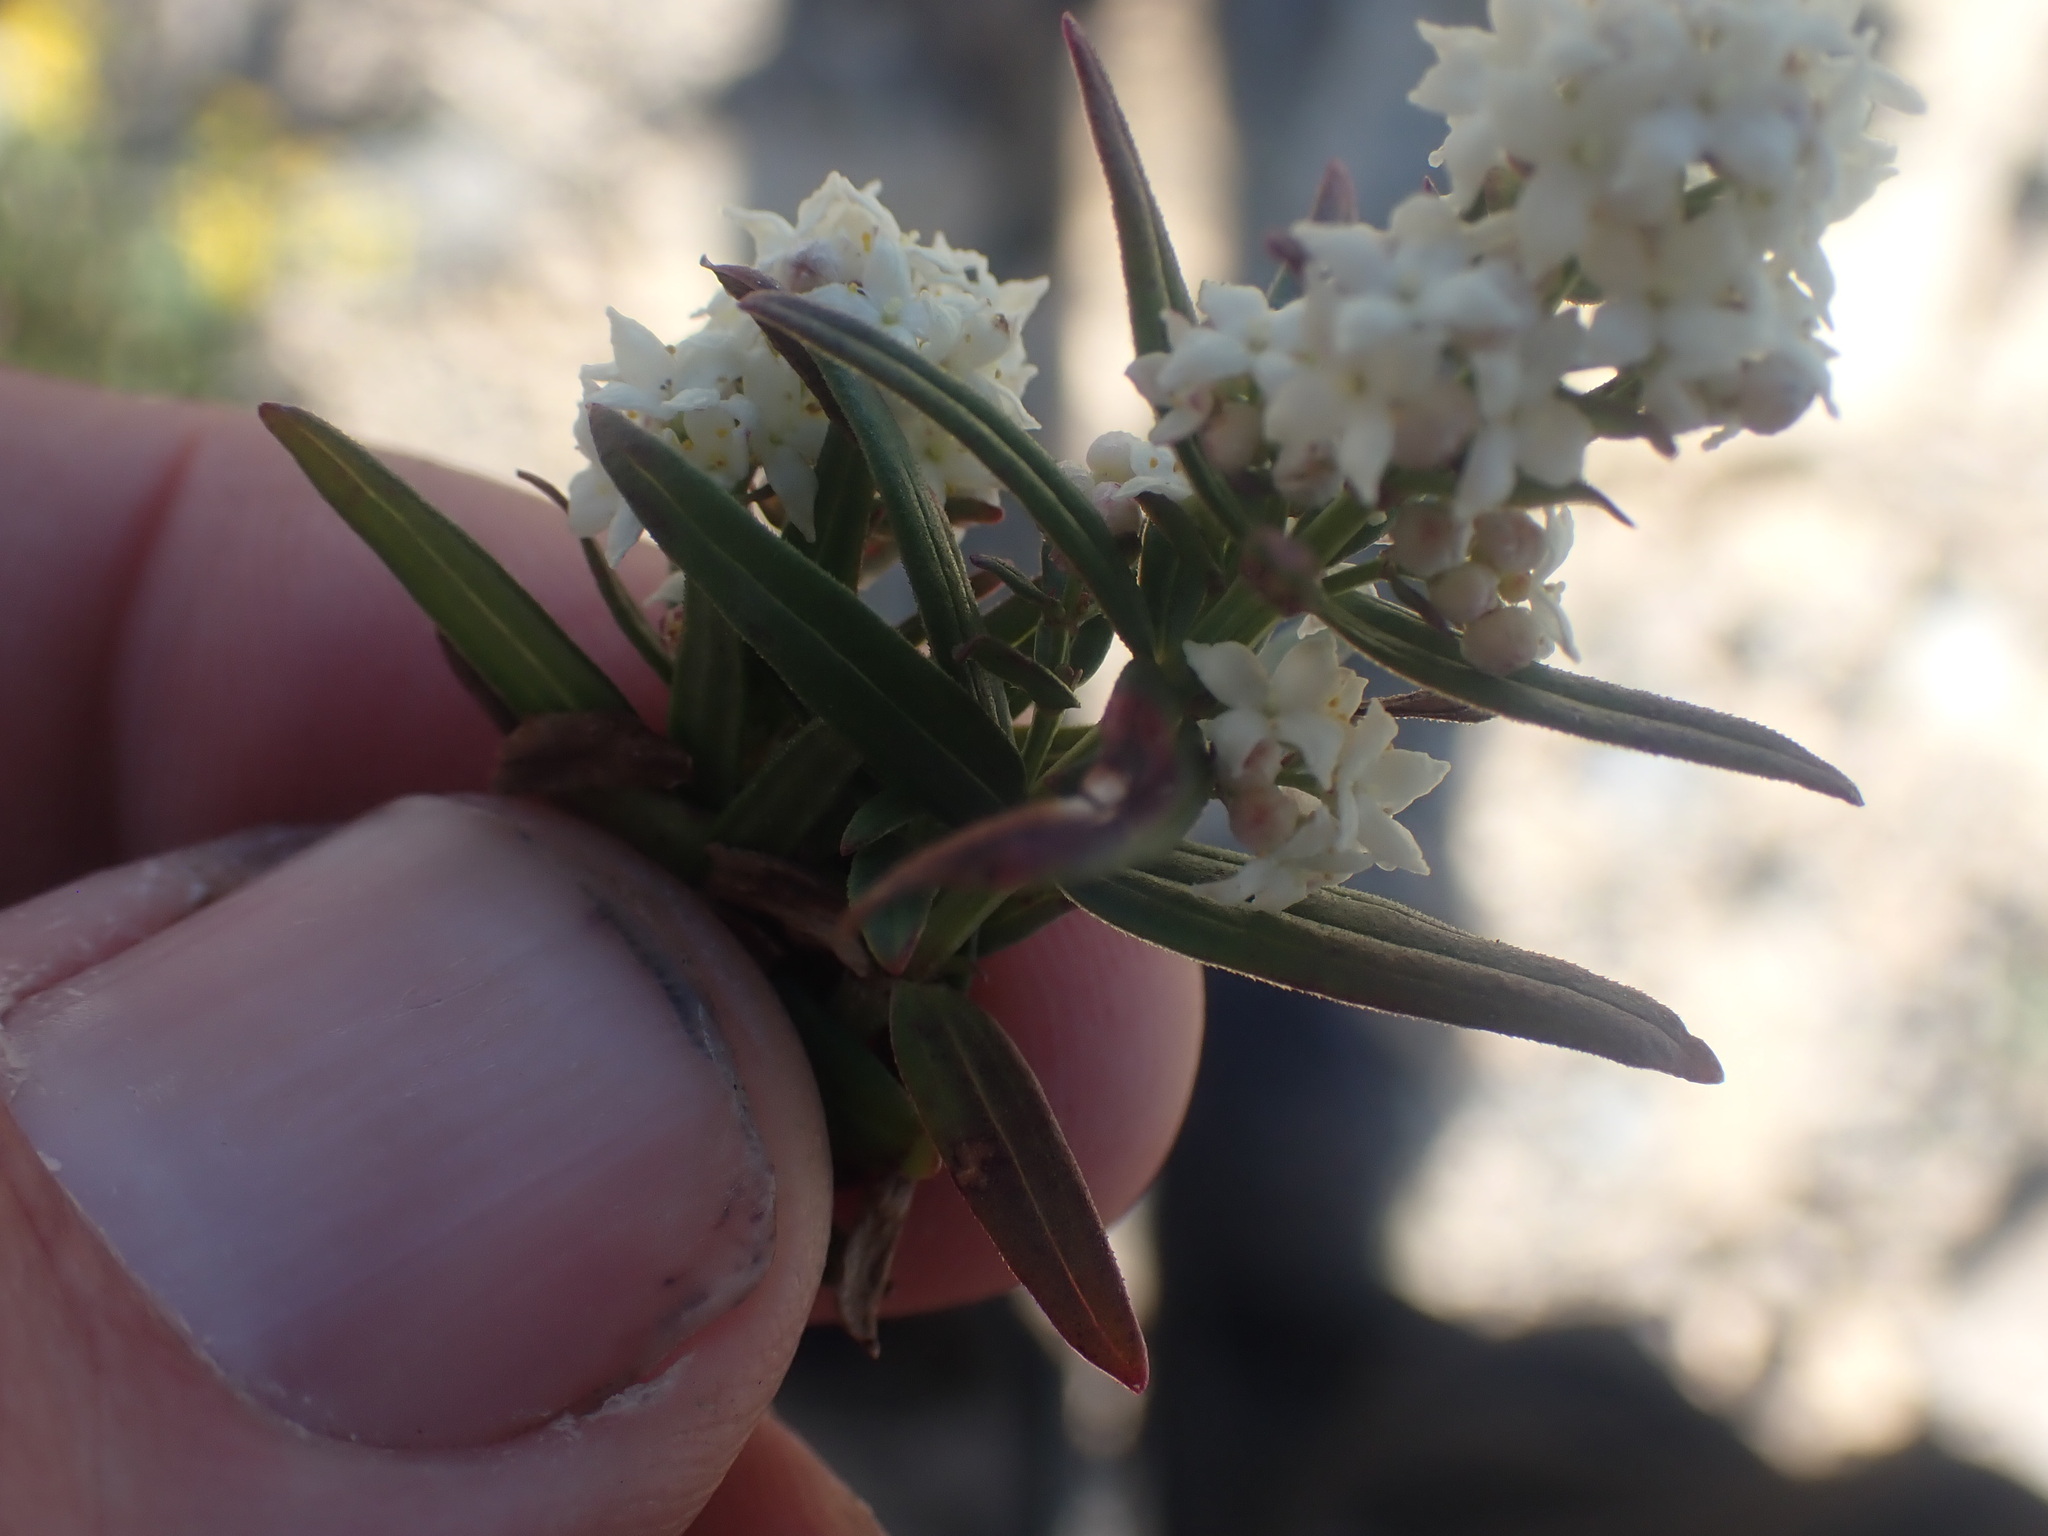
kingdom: Plantae
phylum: Tracheophyta
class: Magnoliopsida
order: Gentianales
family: Rubiaceae
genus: Galium
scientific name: Galium boreale
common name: Northern bedstraw
